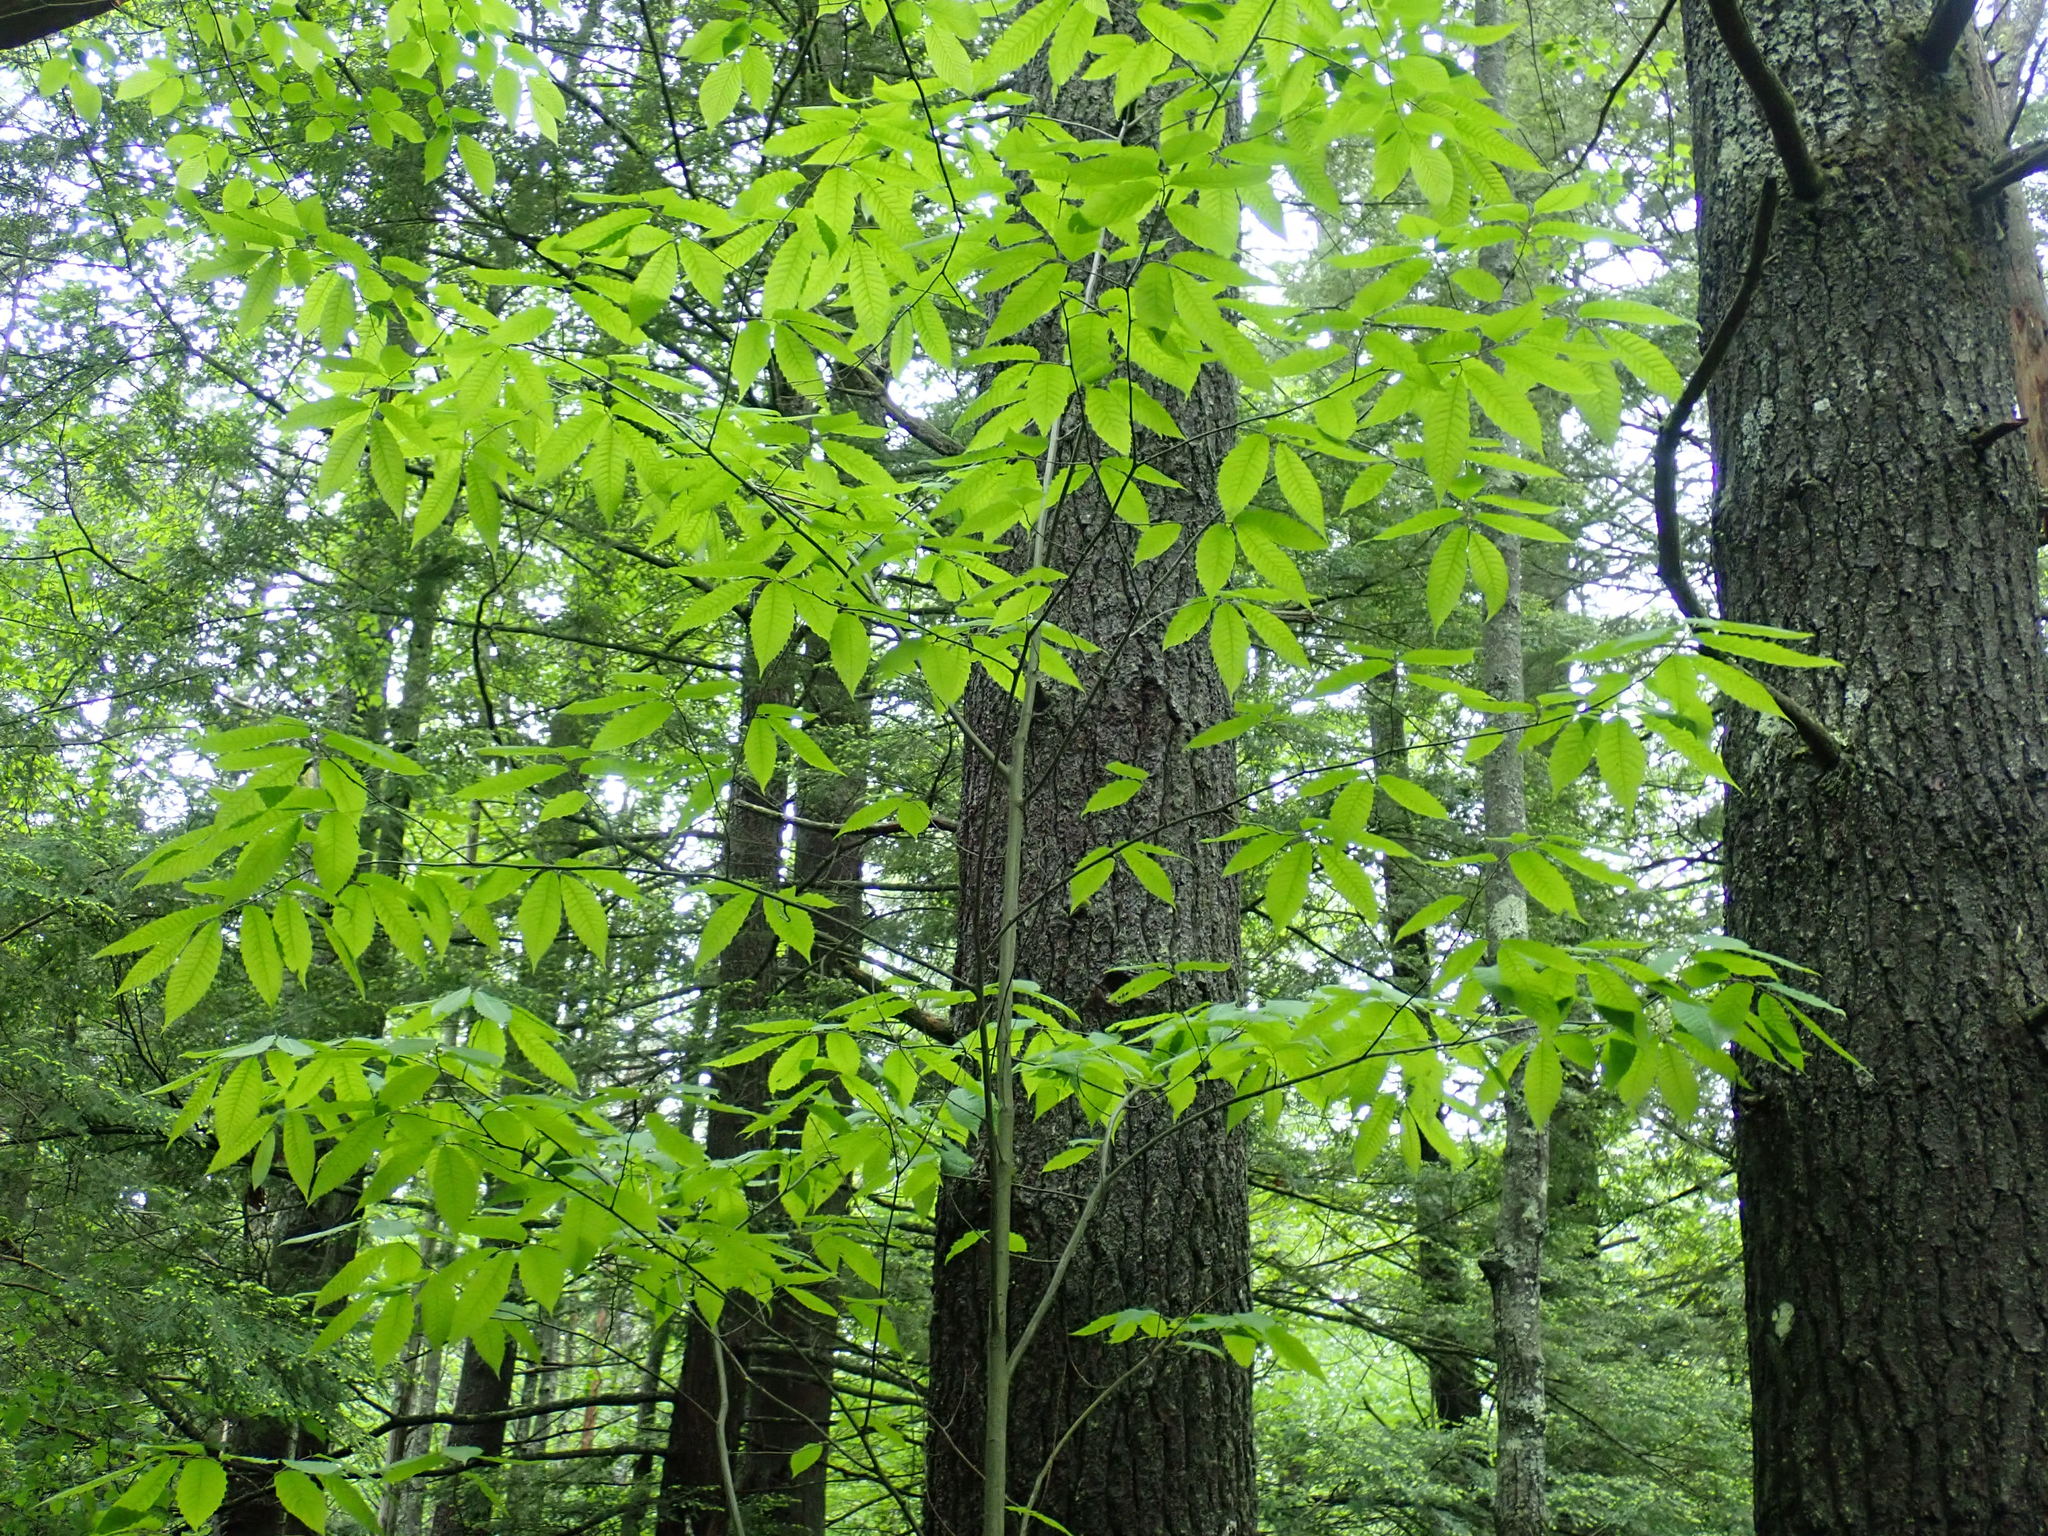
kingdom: Plantae
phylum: Tracheophyta
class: Magnoliopsida
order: Fagales
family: Fagaceae
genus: Castanea
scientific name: Castanea dentata
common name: American chestnut
